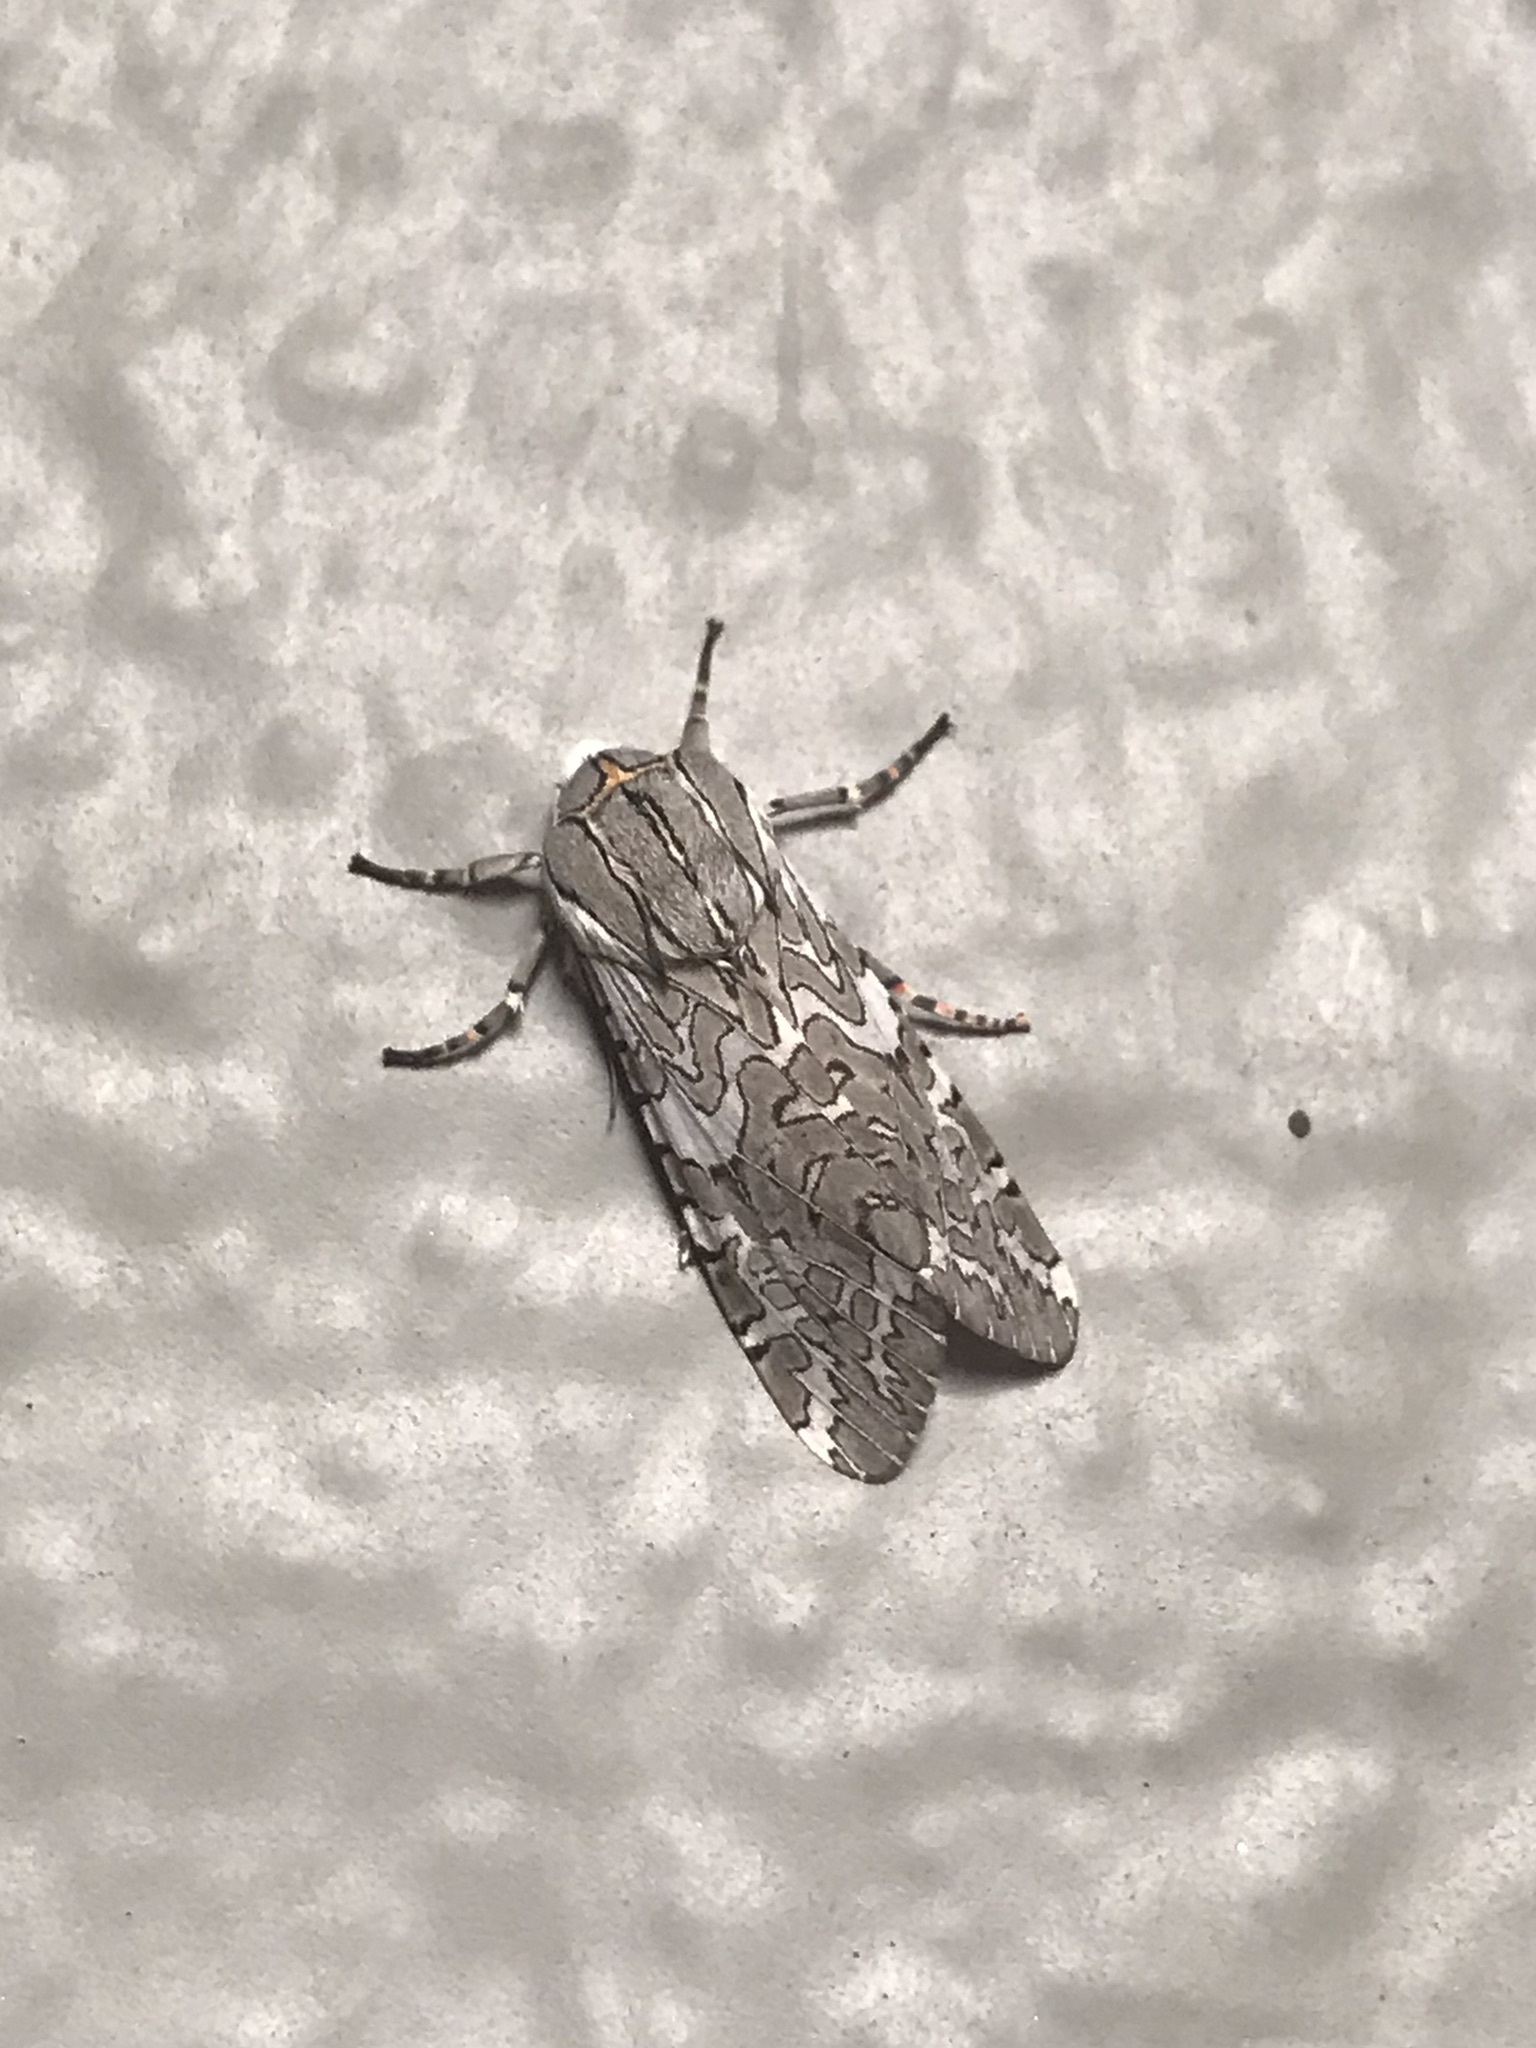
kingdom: Animalia
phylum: Arthropoda
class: Insecta
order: Lepidoptera
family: Erebidae
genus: Arachnis
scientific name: Arachnis picta
